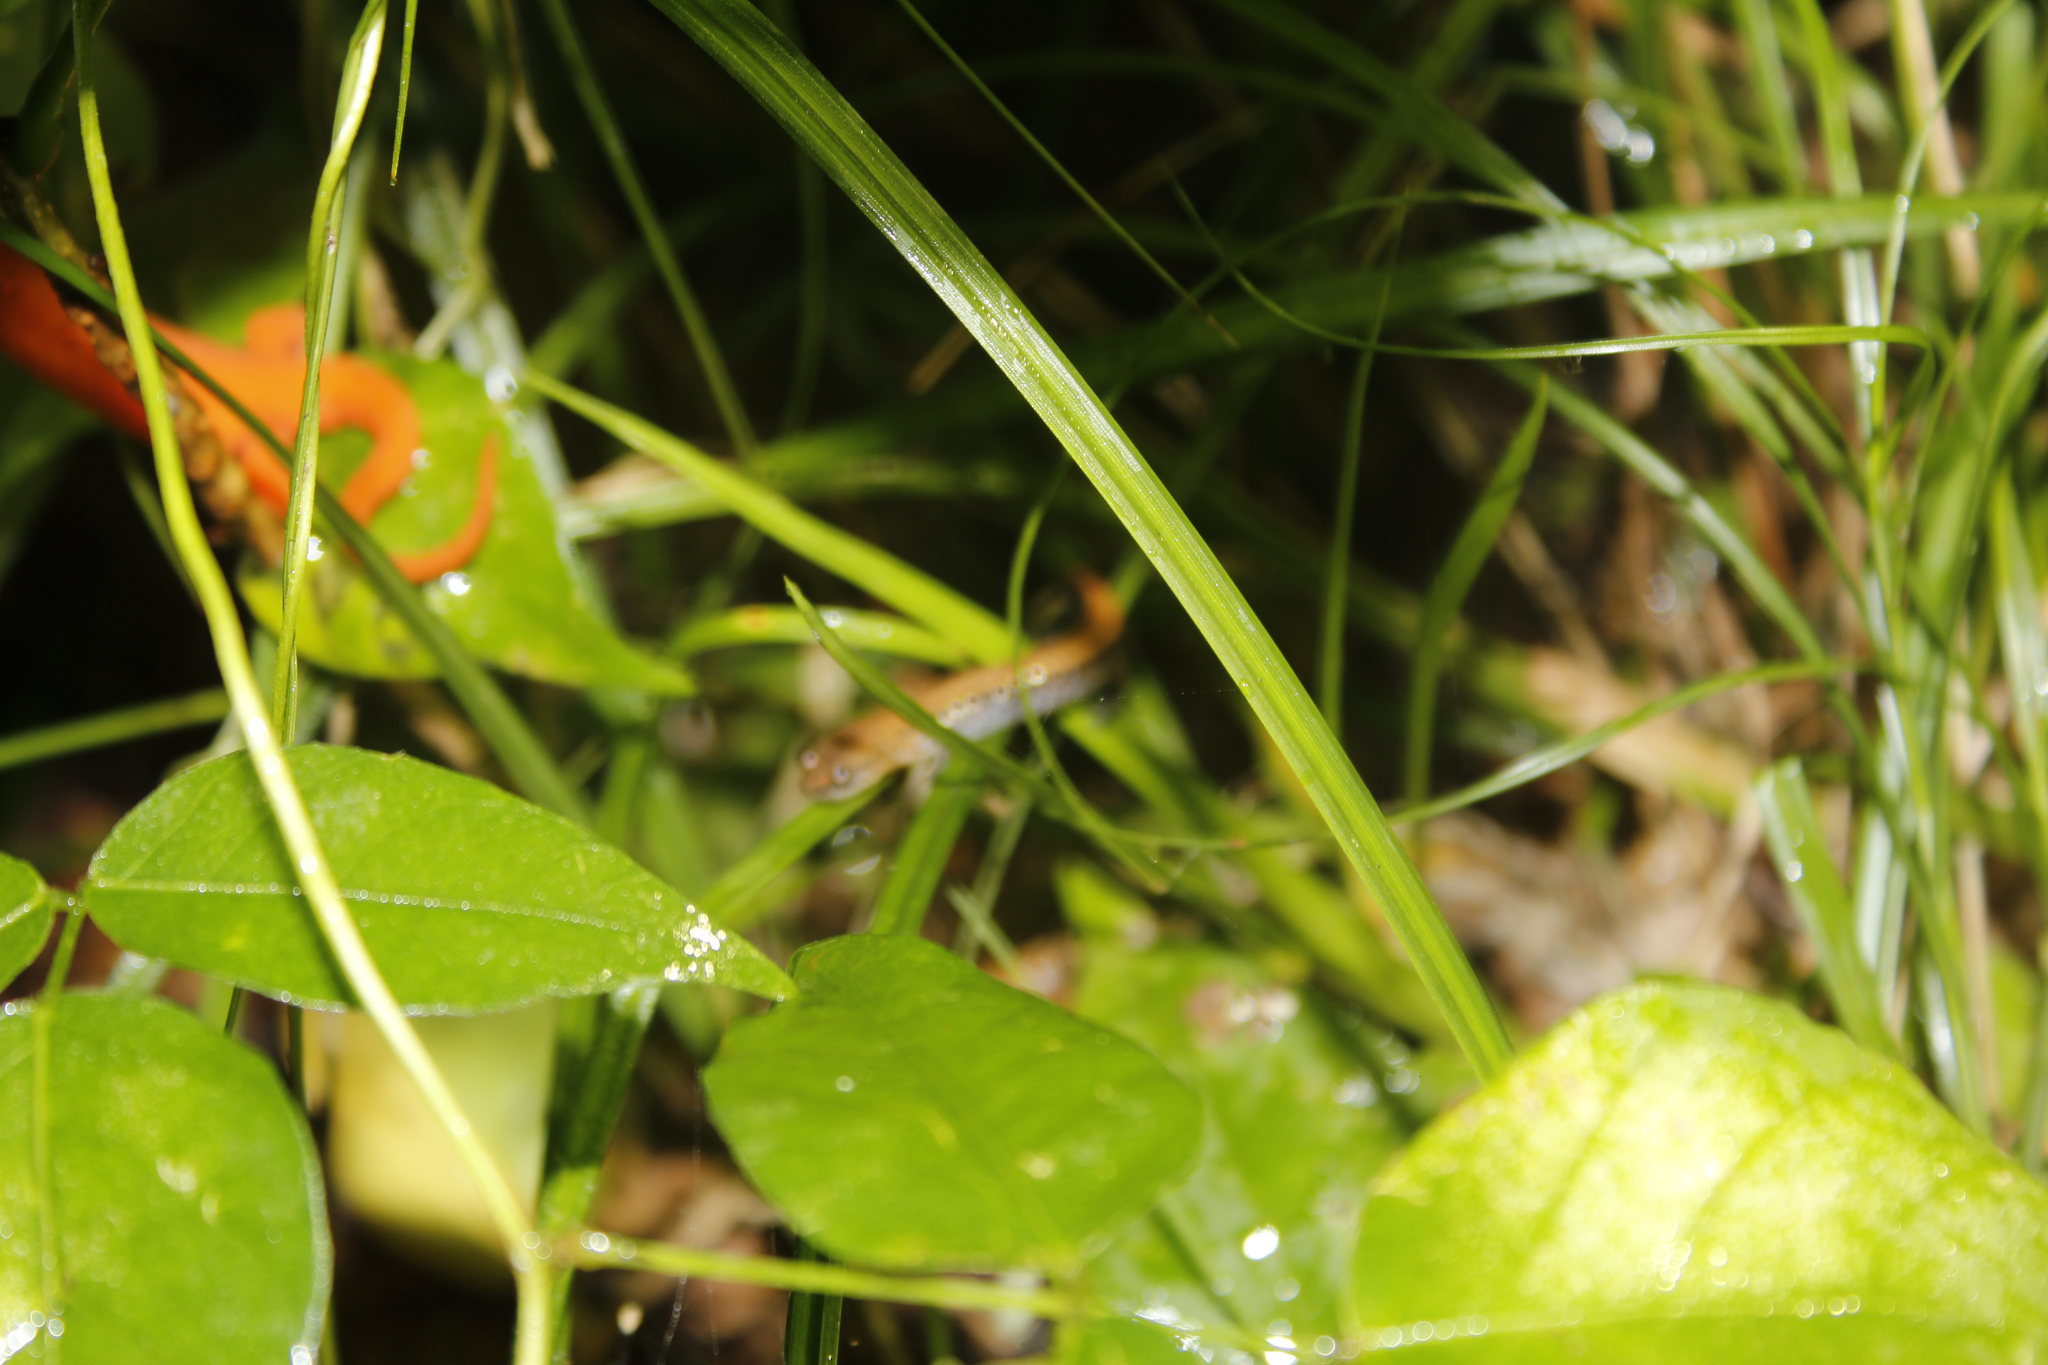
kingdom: Animalia
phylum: Chordata
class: Amphibia
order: Caudata
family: Plethodontidae
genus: Plethodon
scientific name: Plethodon cinereus
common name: Redback salamander
